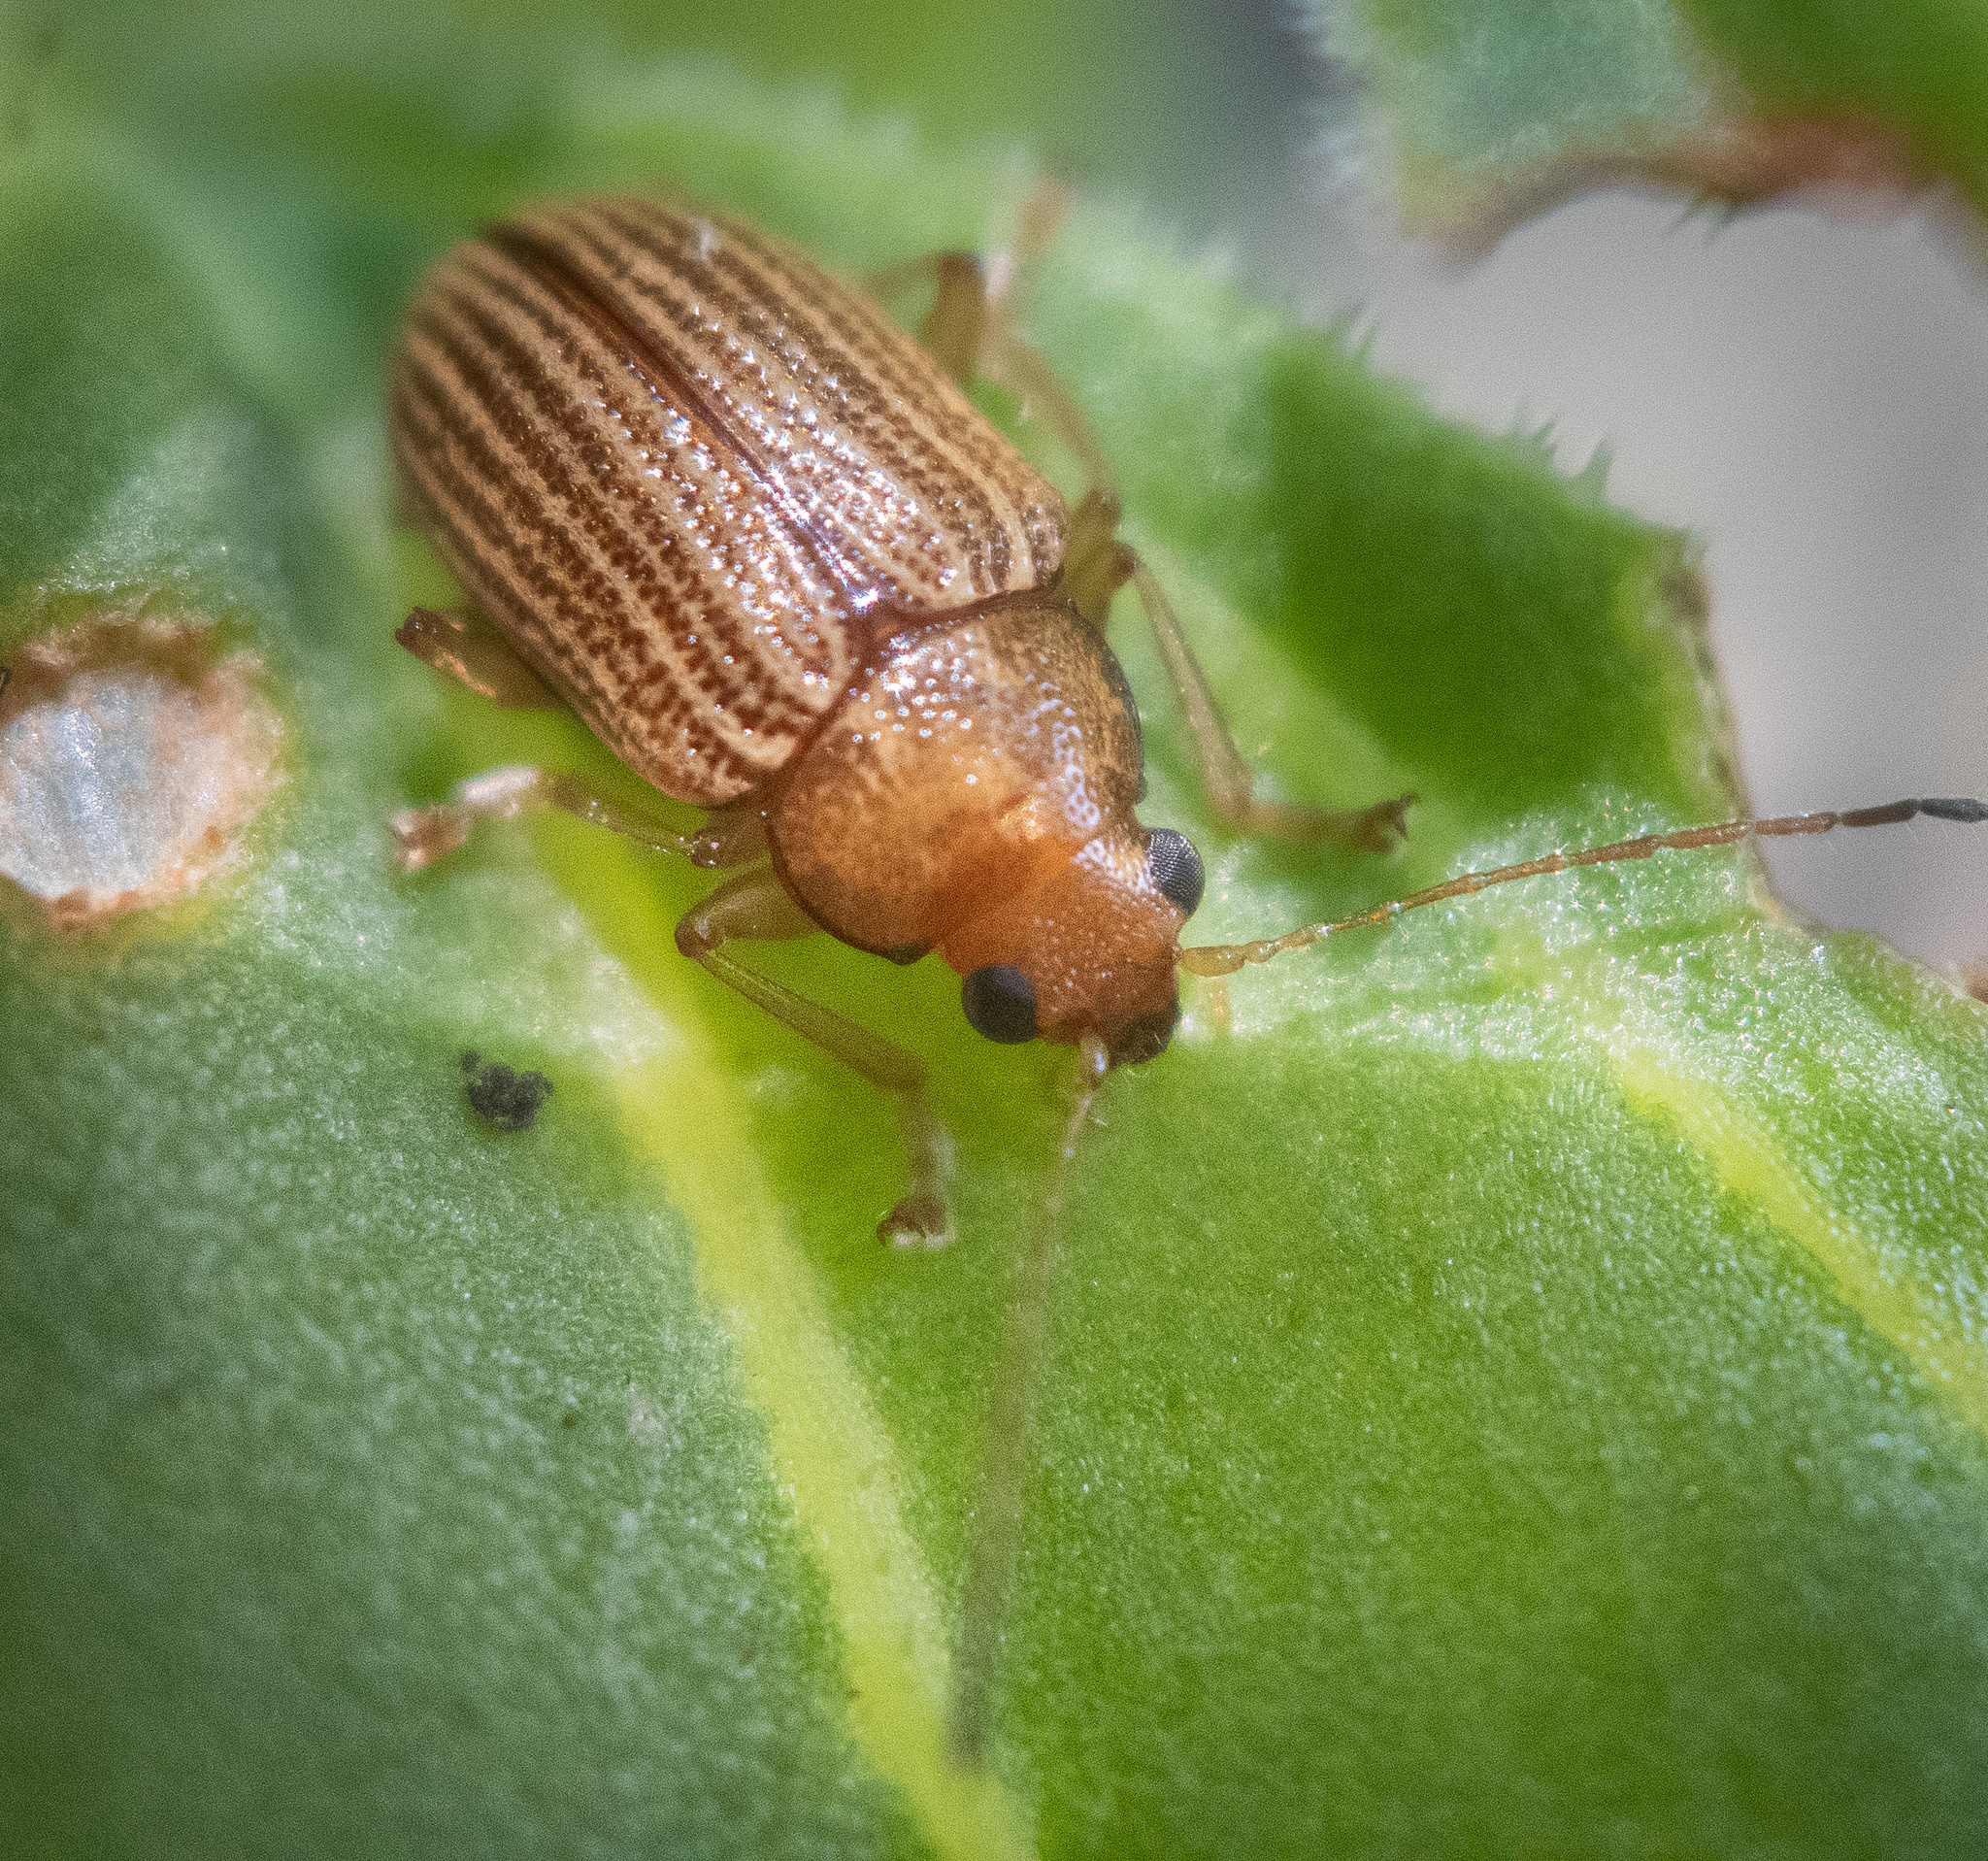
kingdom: Animalia
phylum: Arthropoda
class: Insecta
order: Coleoptera
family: Chrysomelidae
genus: Colaspis
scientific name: Colaspis brunnea
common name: Grape colaspis
